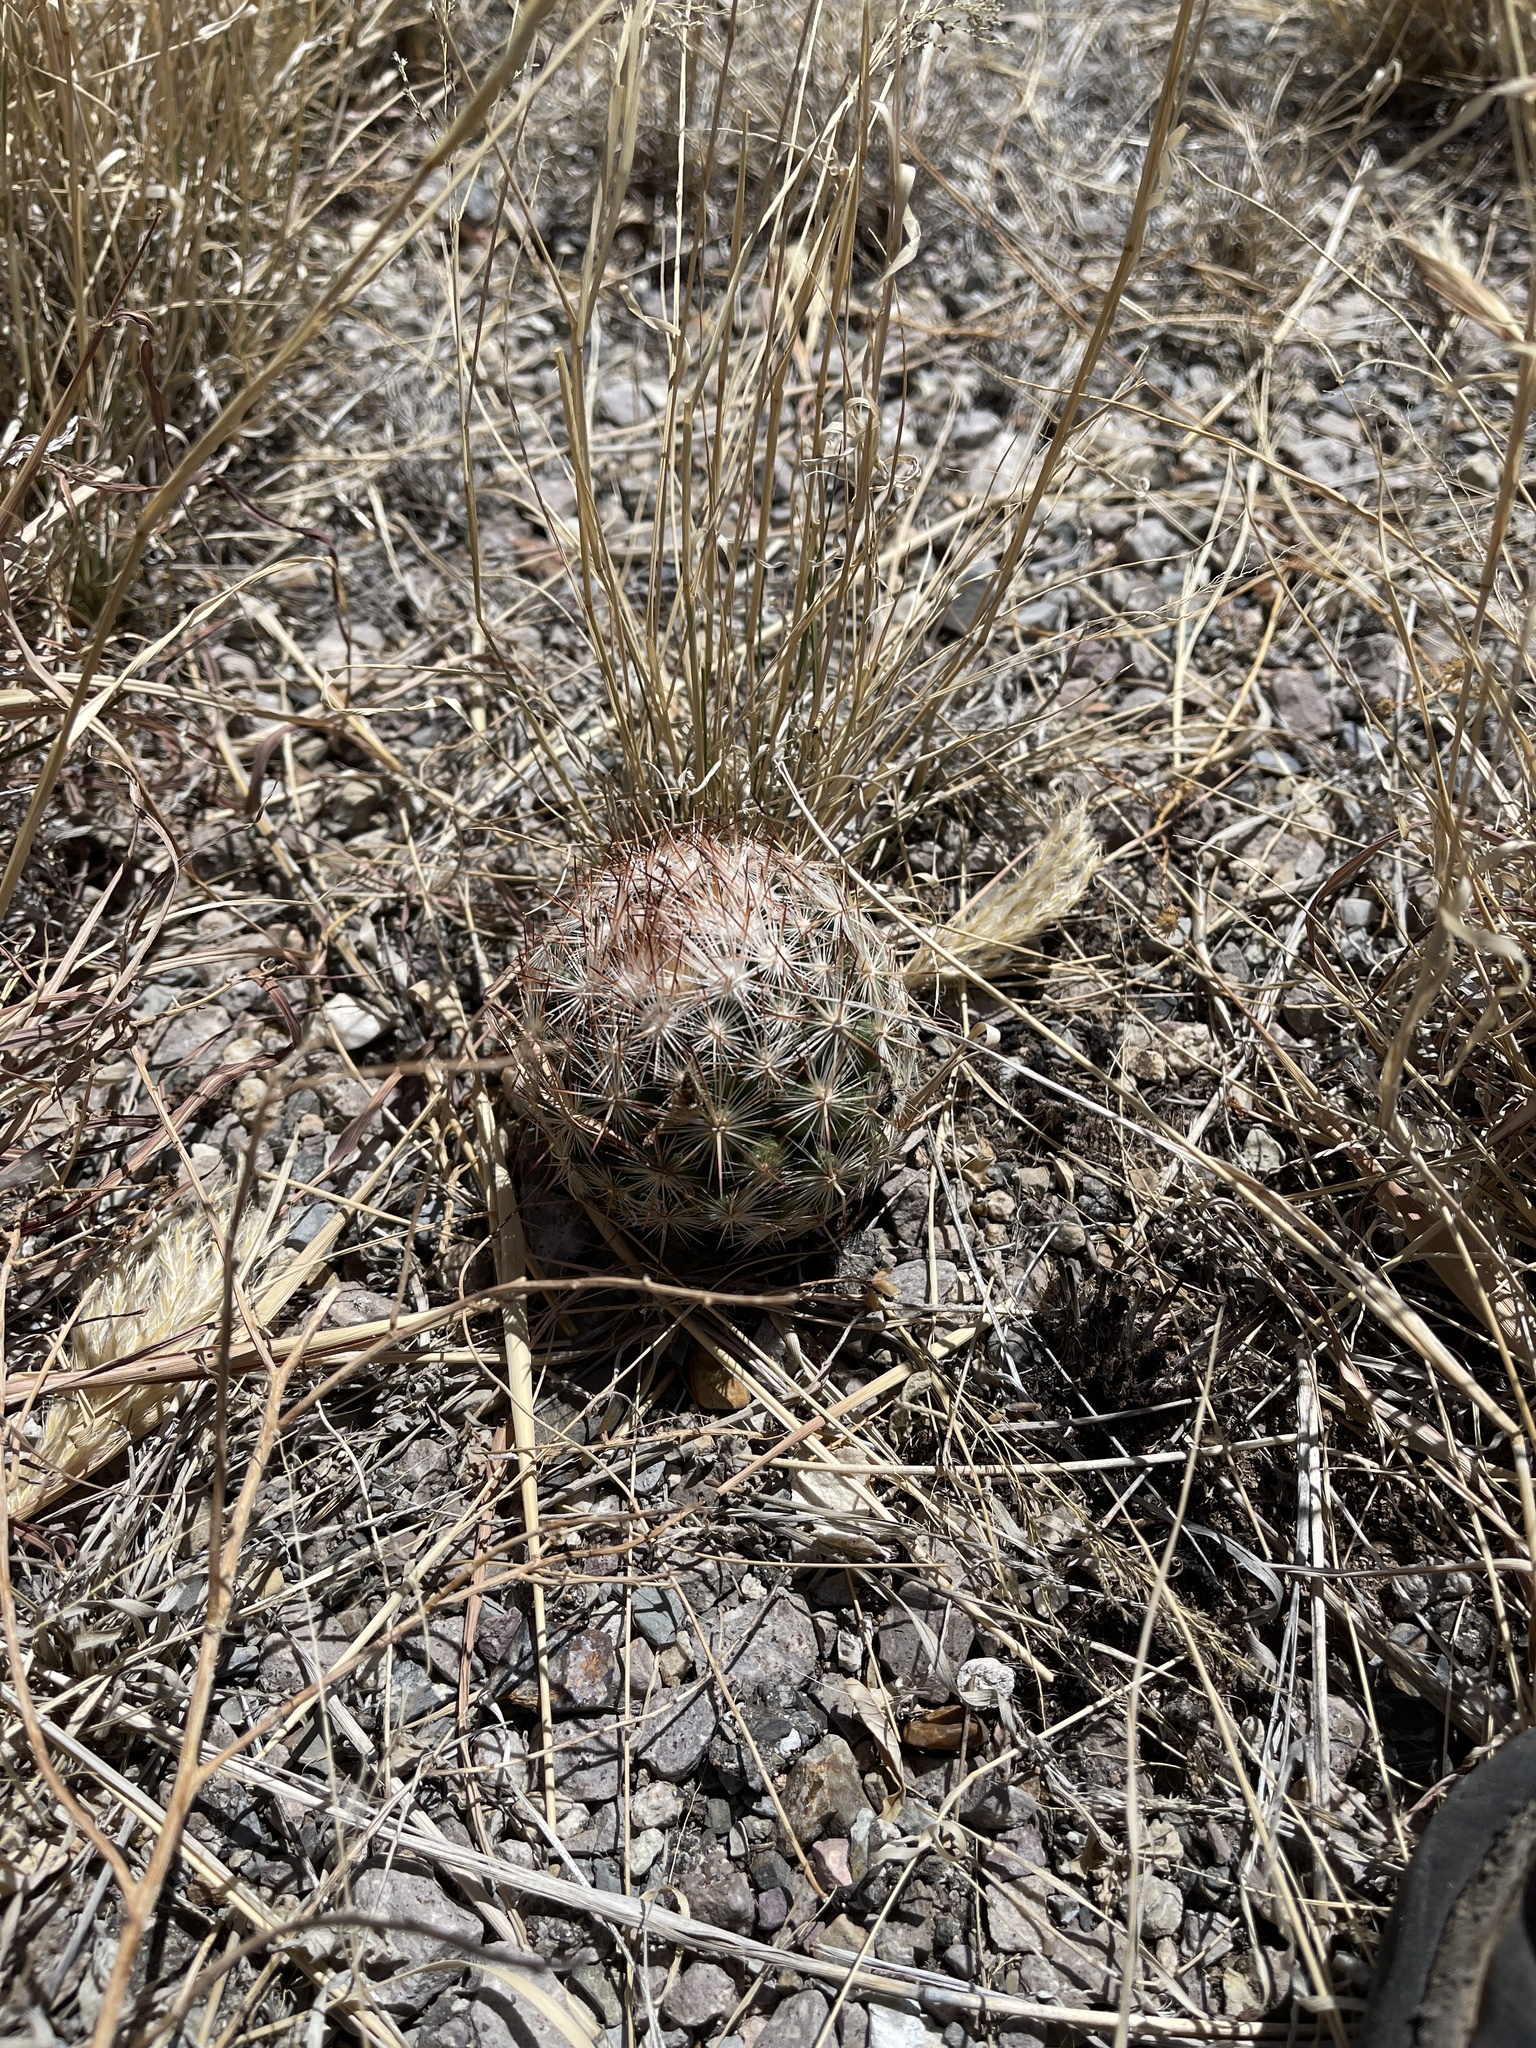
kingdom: Plantae
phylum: Tracheophyta
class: Magnoliopsida
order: Caryophyllales
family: Cactaceae
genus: Pelecyphora
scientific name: Pelecyphora vivipara
